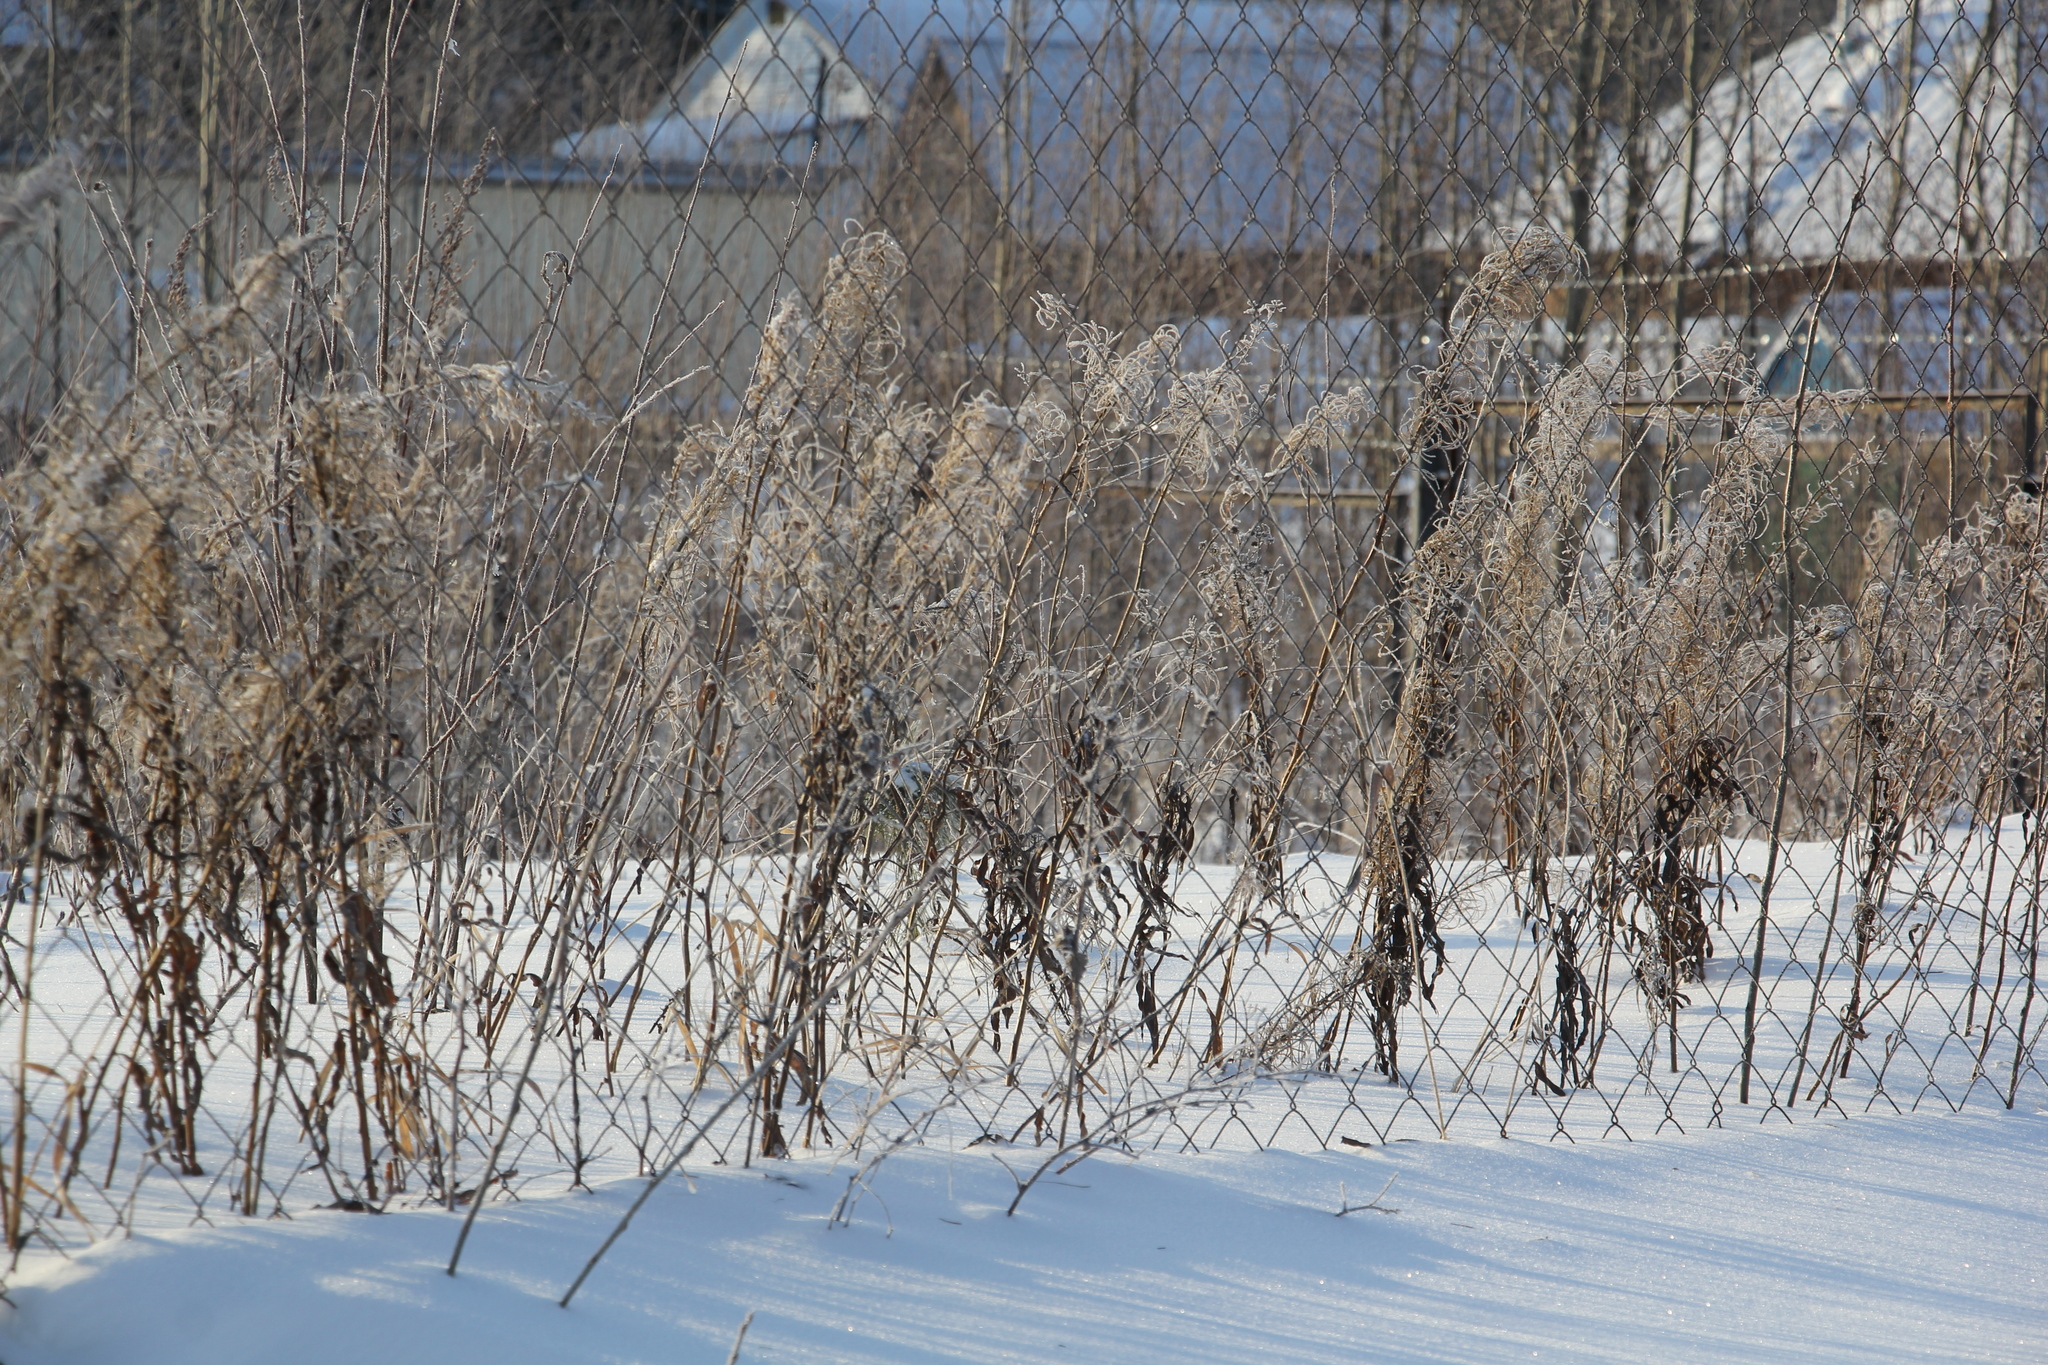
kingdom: Plantae
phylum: Tracheophyta
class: Magnoliopsida
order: Myrtales
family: Onagraceae
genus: Chamaenerion
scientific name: Chamaenerion angustifolium
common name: Fireweed
